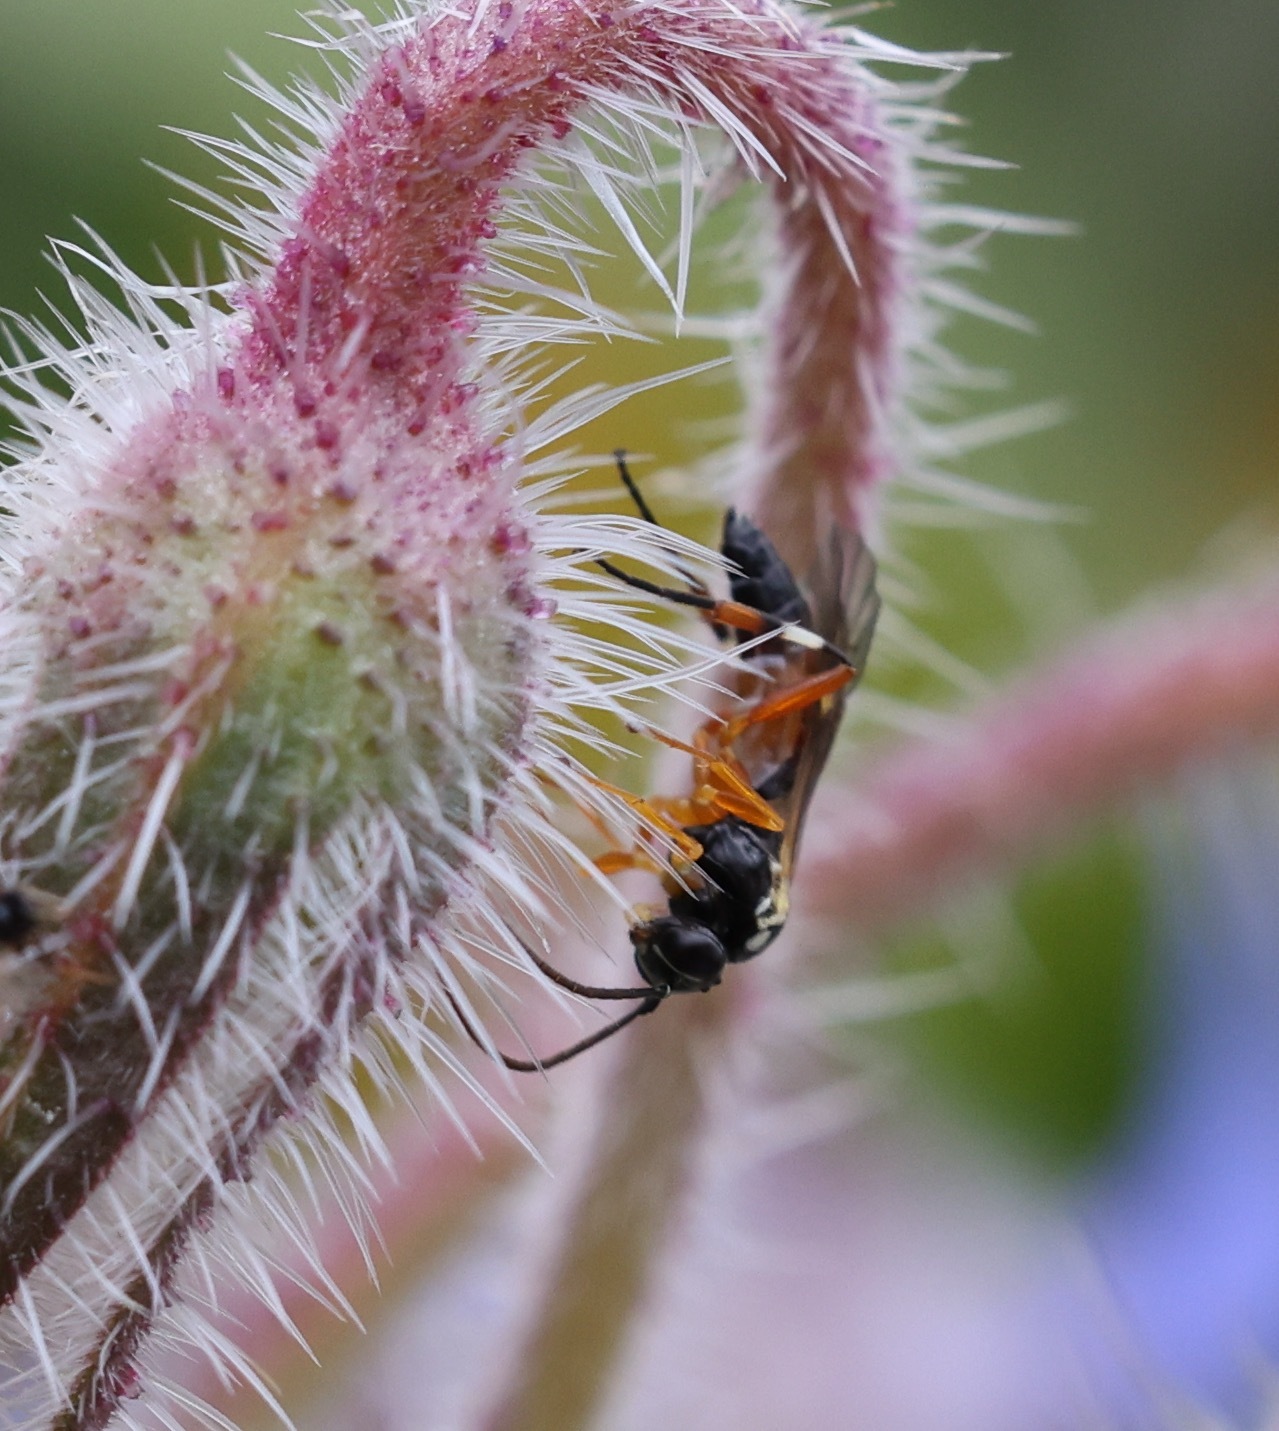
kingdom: Animalia
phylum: Arthropoda
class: Insecta
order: Hymenoptera
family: Ichneumonidae
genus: Diplazon
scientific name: Diplazon laetatorius
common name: Parasitoid wasp
